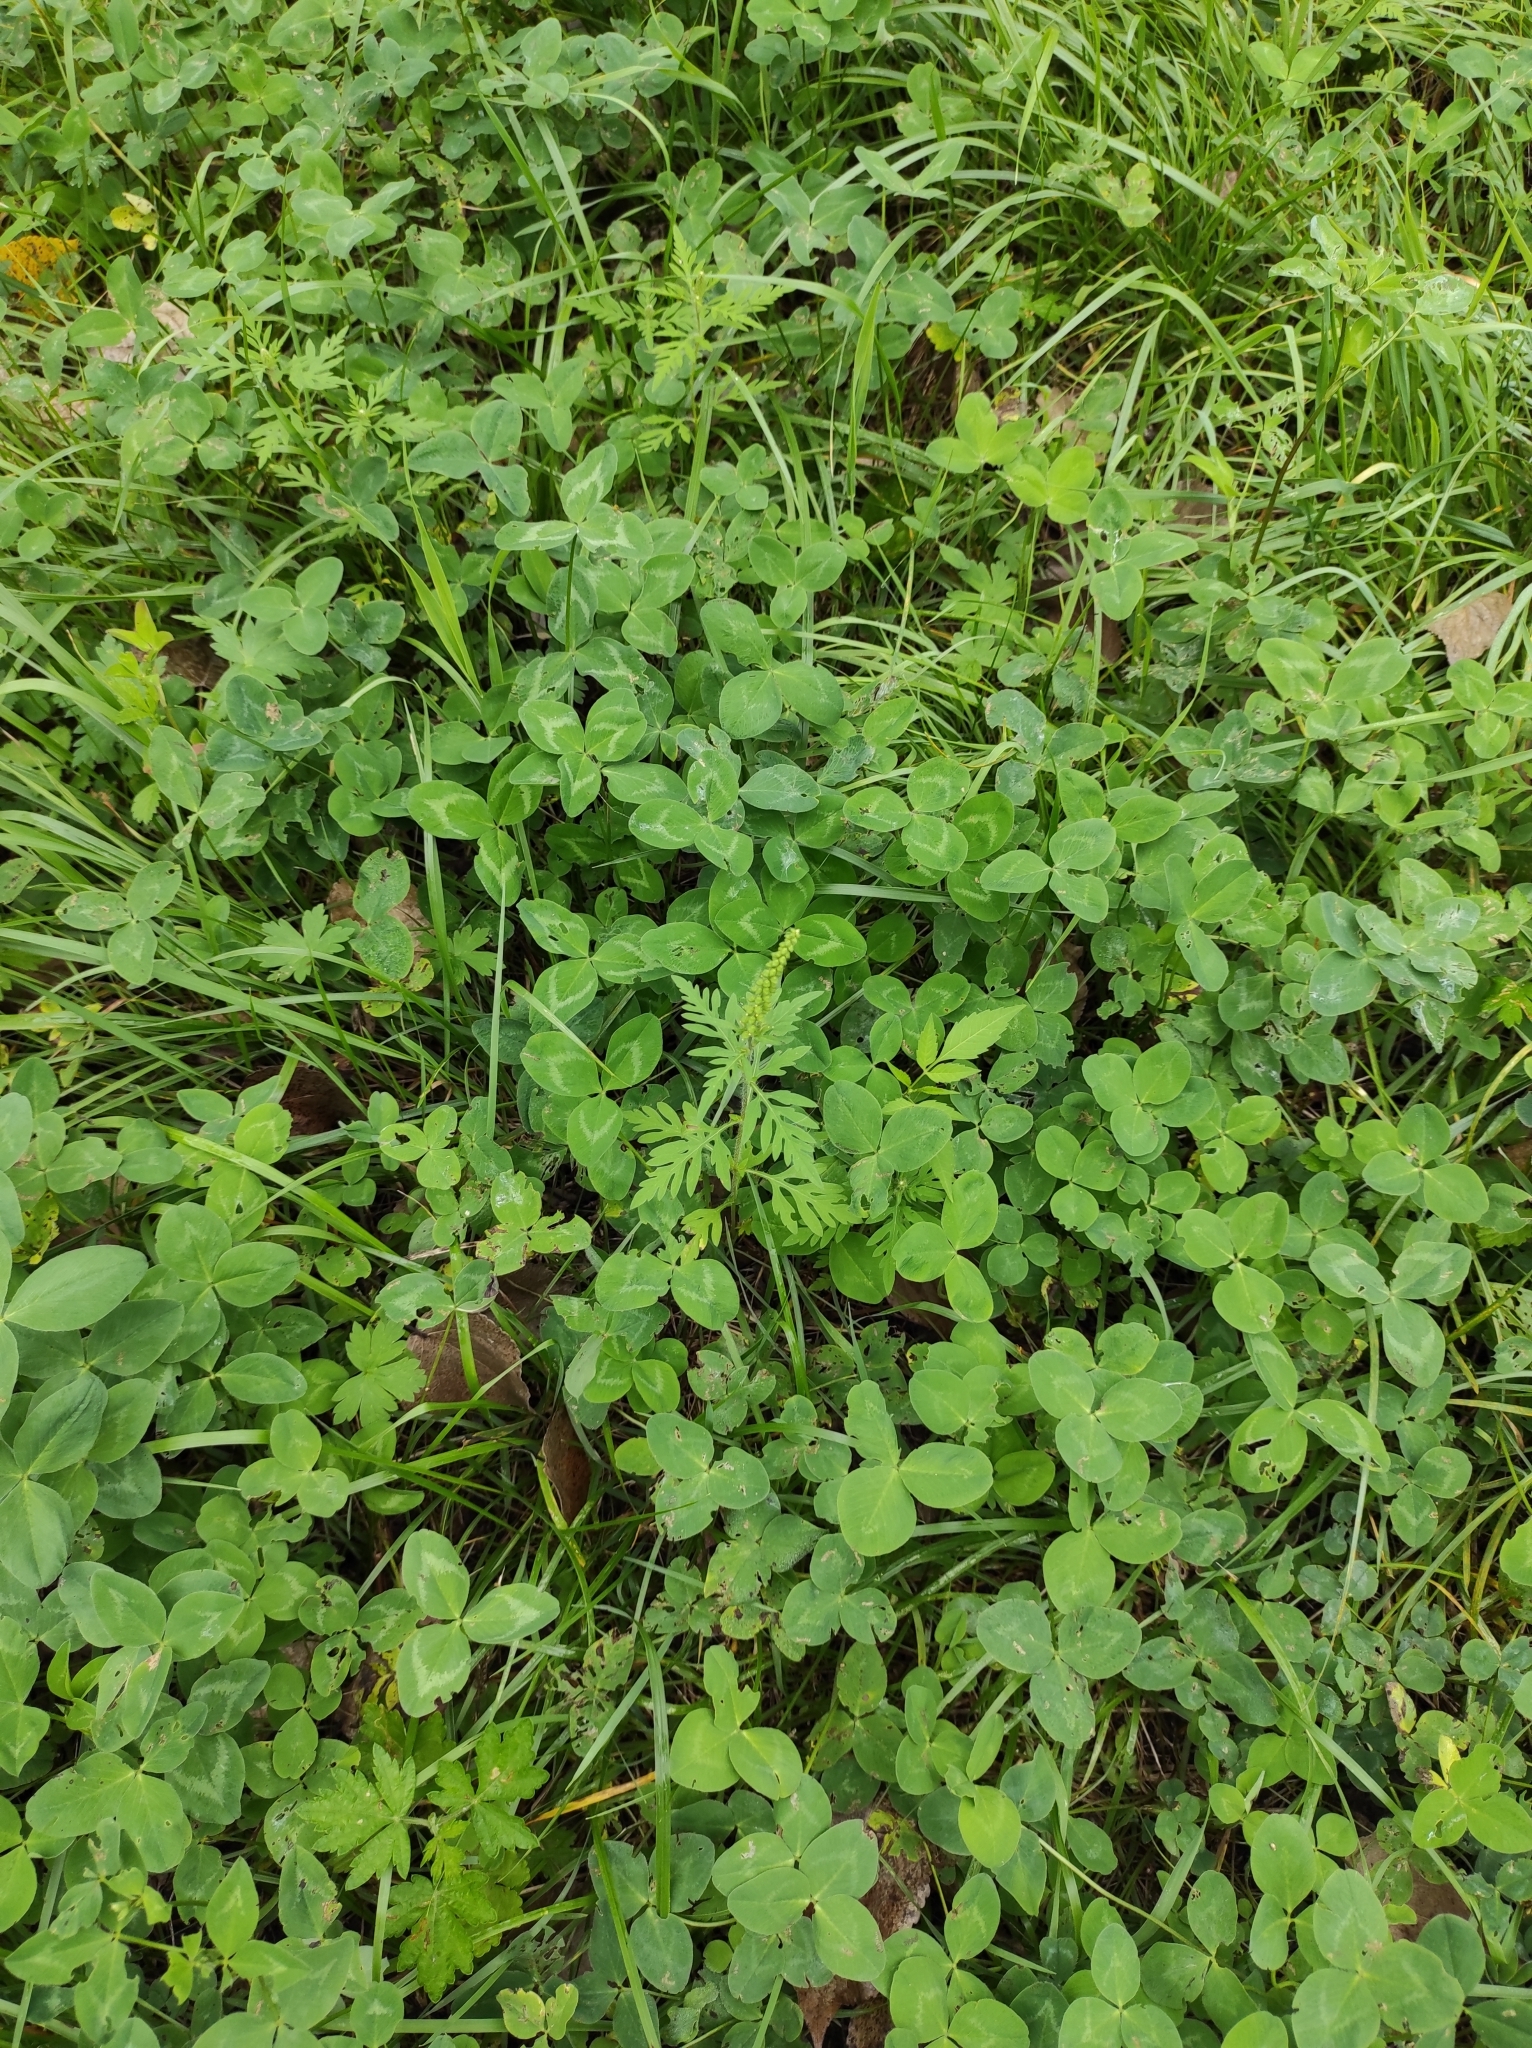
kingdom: Plantae
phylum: Tracheophyta
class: Magnoliopsida
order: Asterales
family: Asteraceae
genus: Ambrosia
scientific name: Ambrosia artemisiifolia
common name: Annual ragweed
